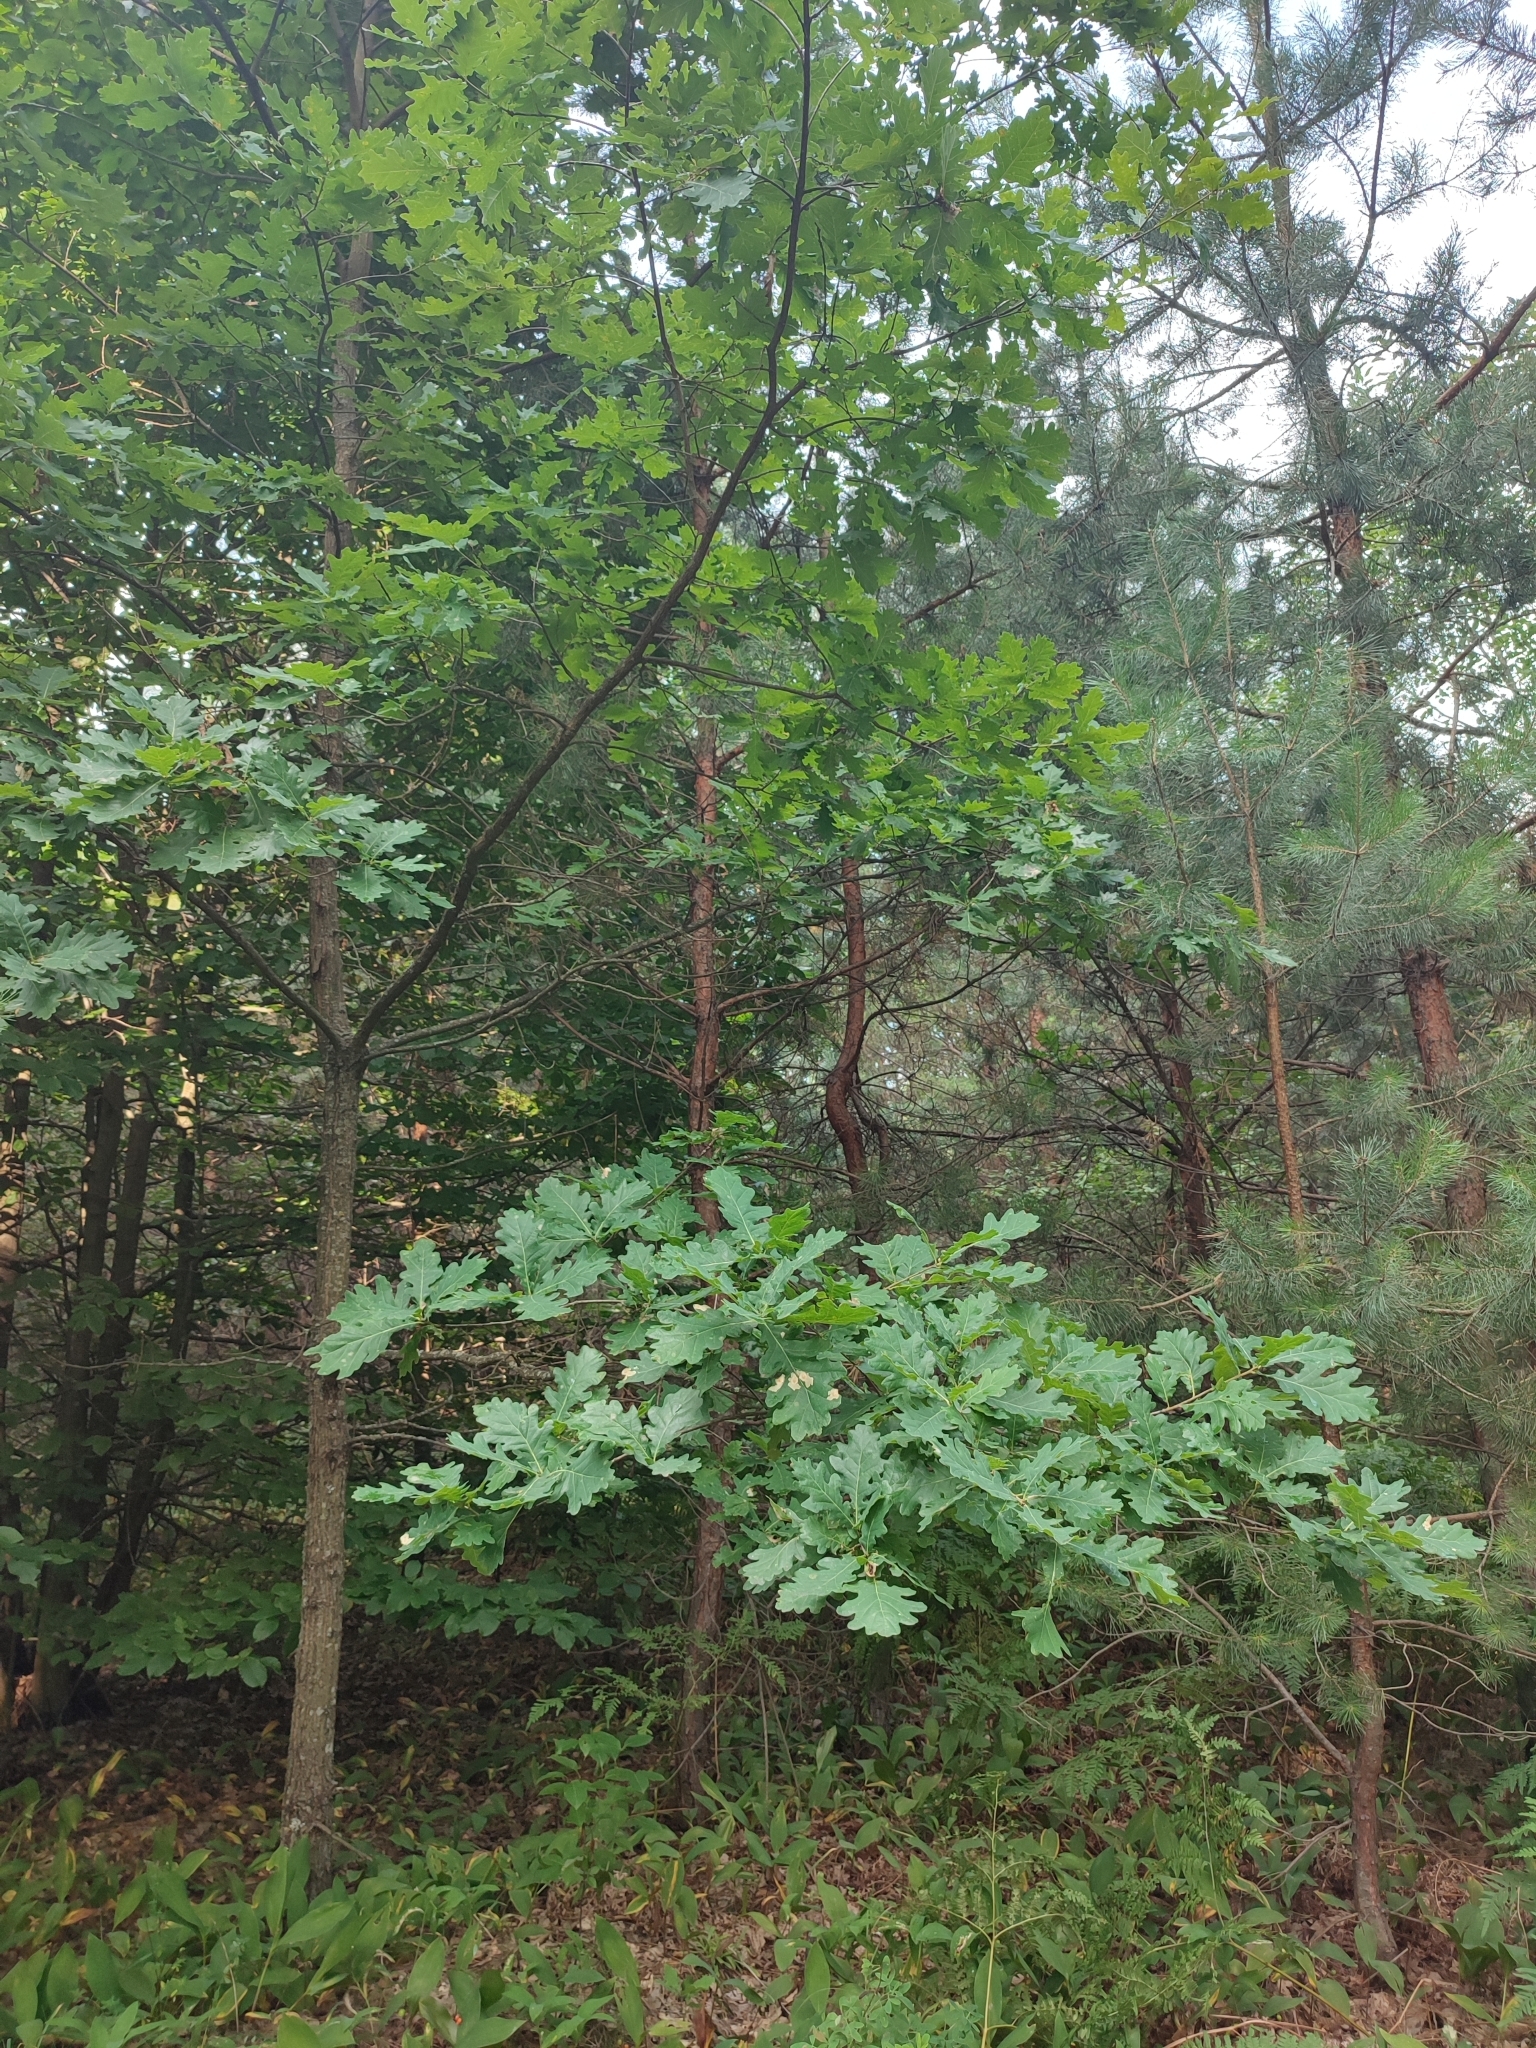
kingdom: Plantae
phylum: Tracheophyta
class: Magnoliopsida
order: Fagales
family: Fagaceae
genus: Quercus
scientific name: Quercus robur
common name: Pedunculate oak
